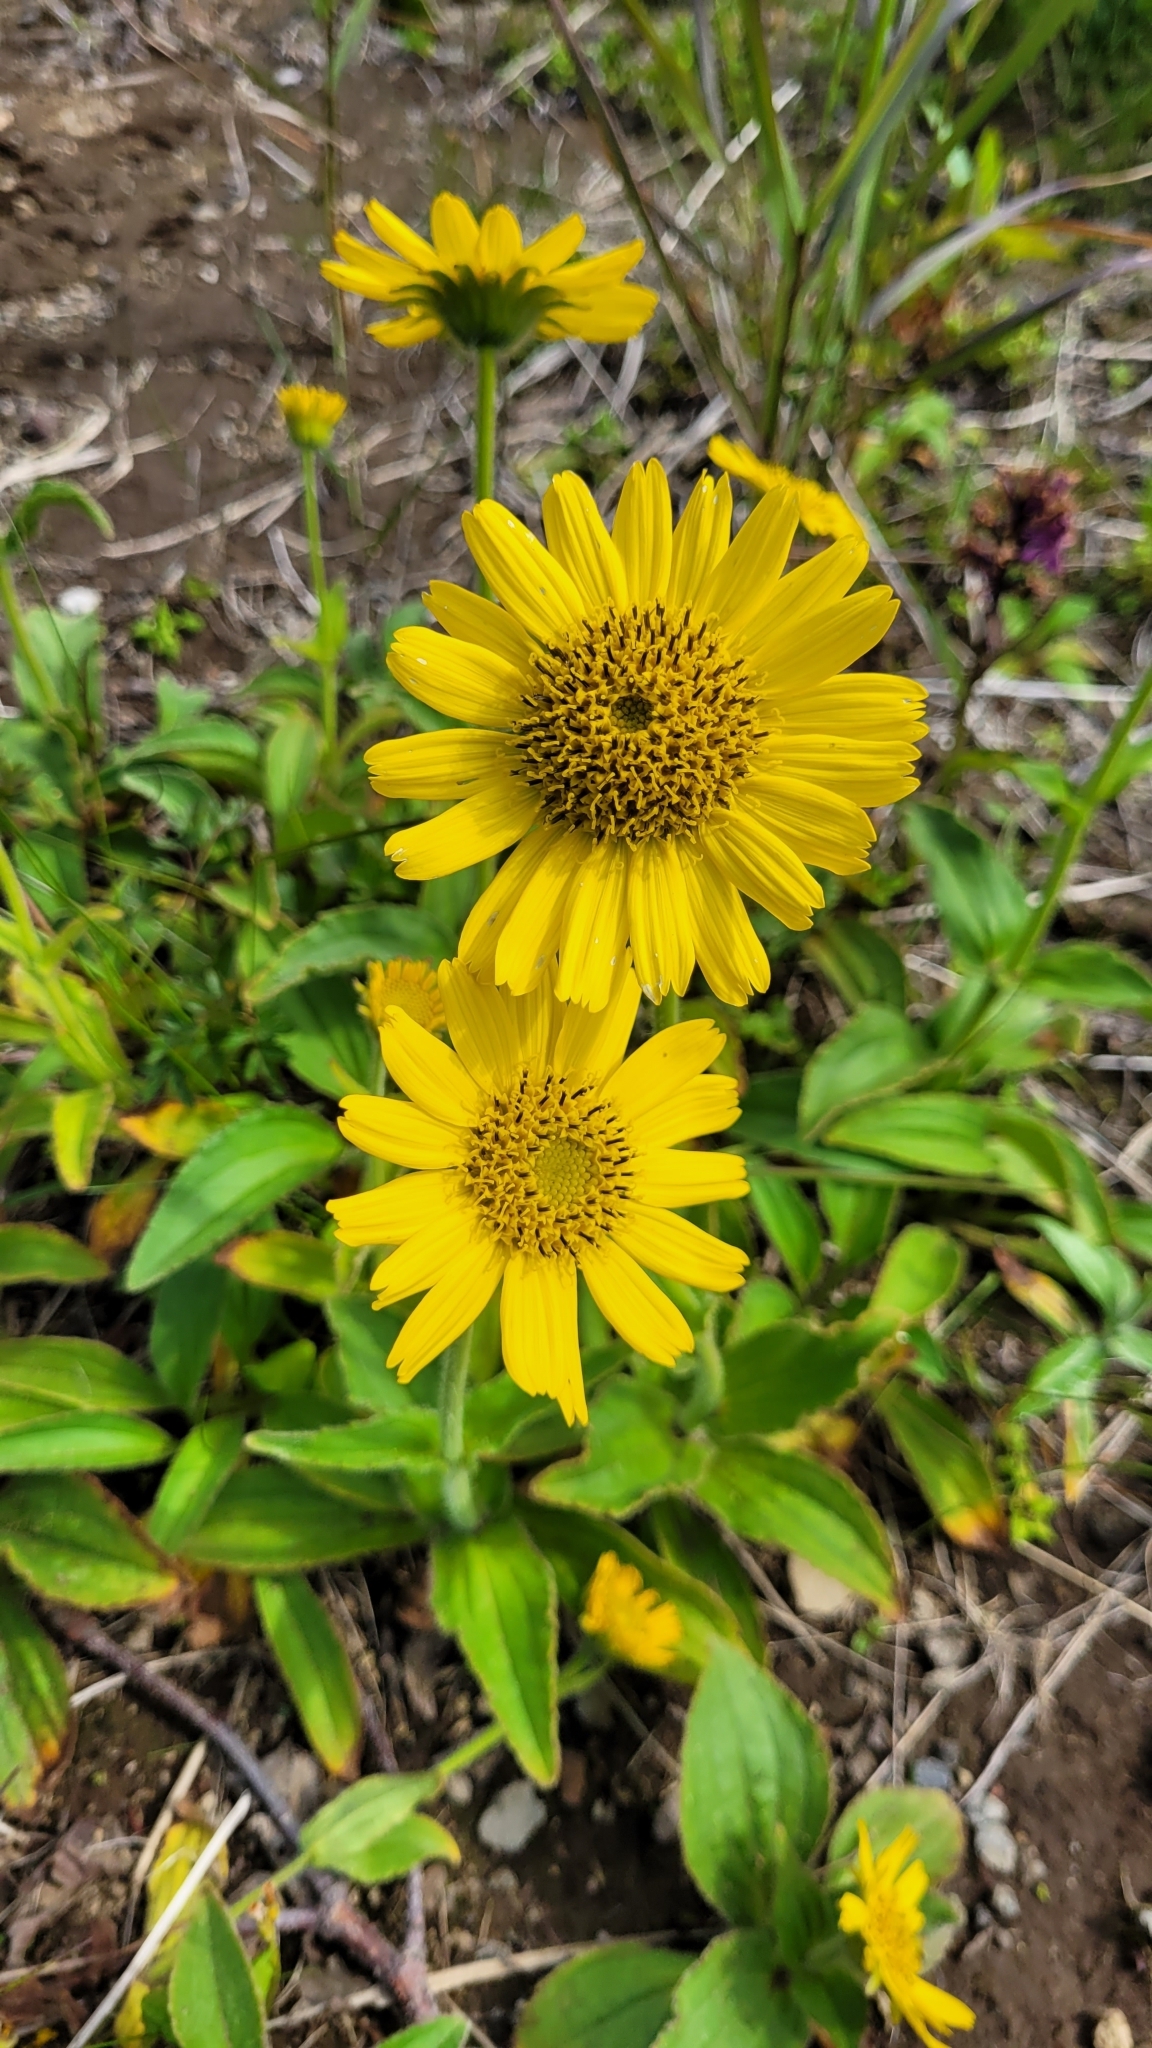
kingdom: Plantae
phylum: Tracheophyta
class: Magnoliopsida
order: Asterales
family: Asteraceae
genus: Arnica
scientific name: Arnica unalaschcensis
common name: Alaska arnica
